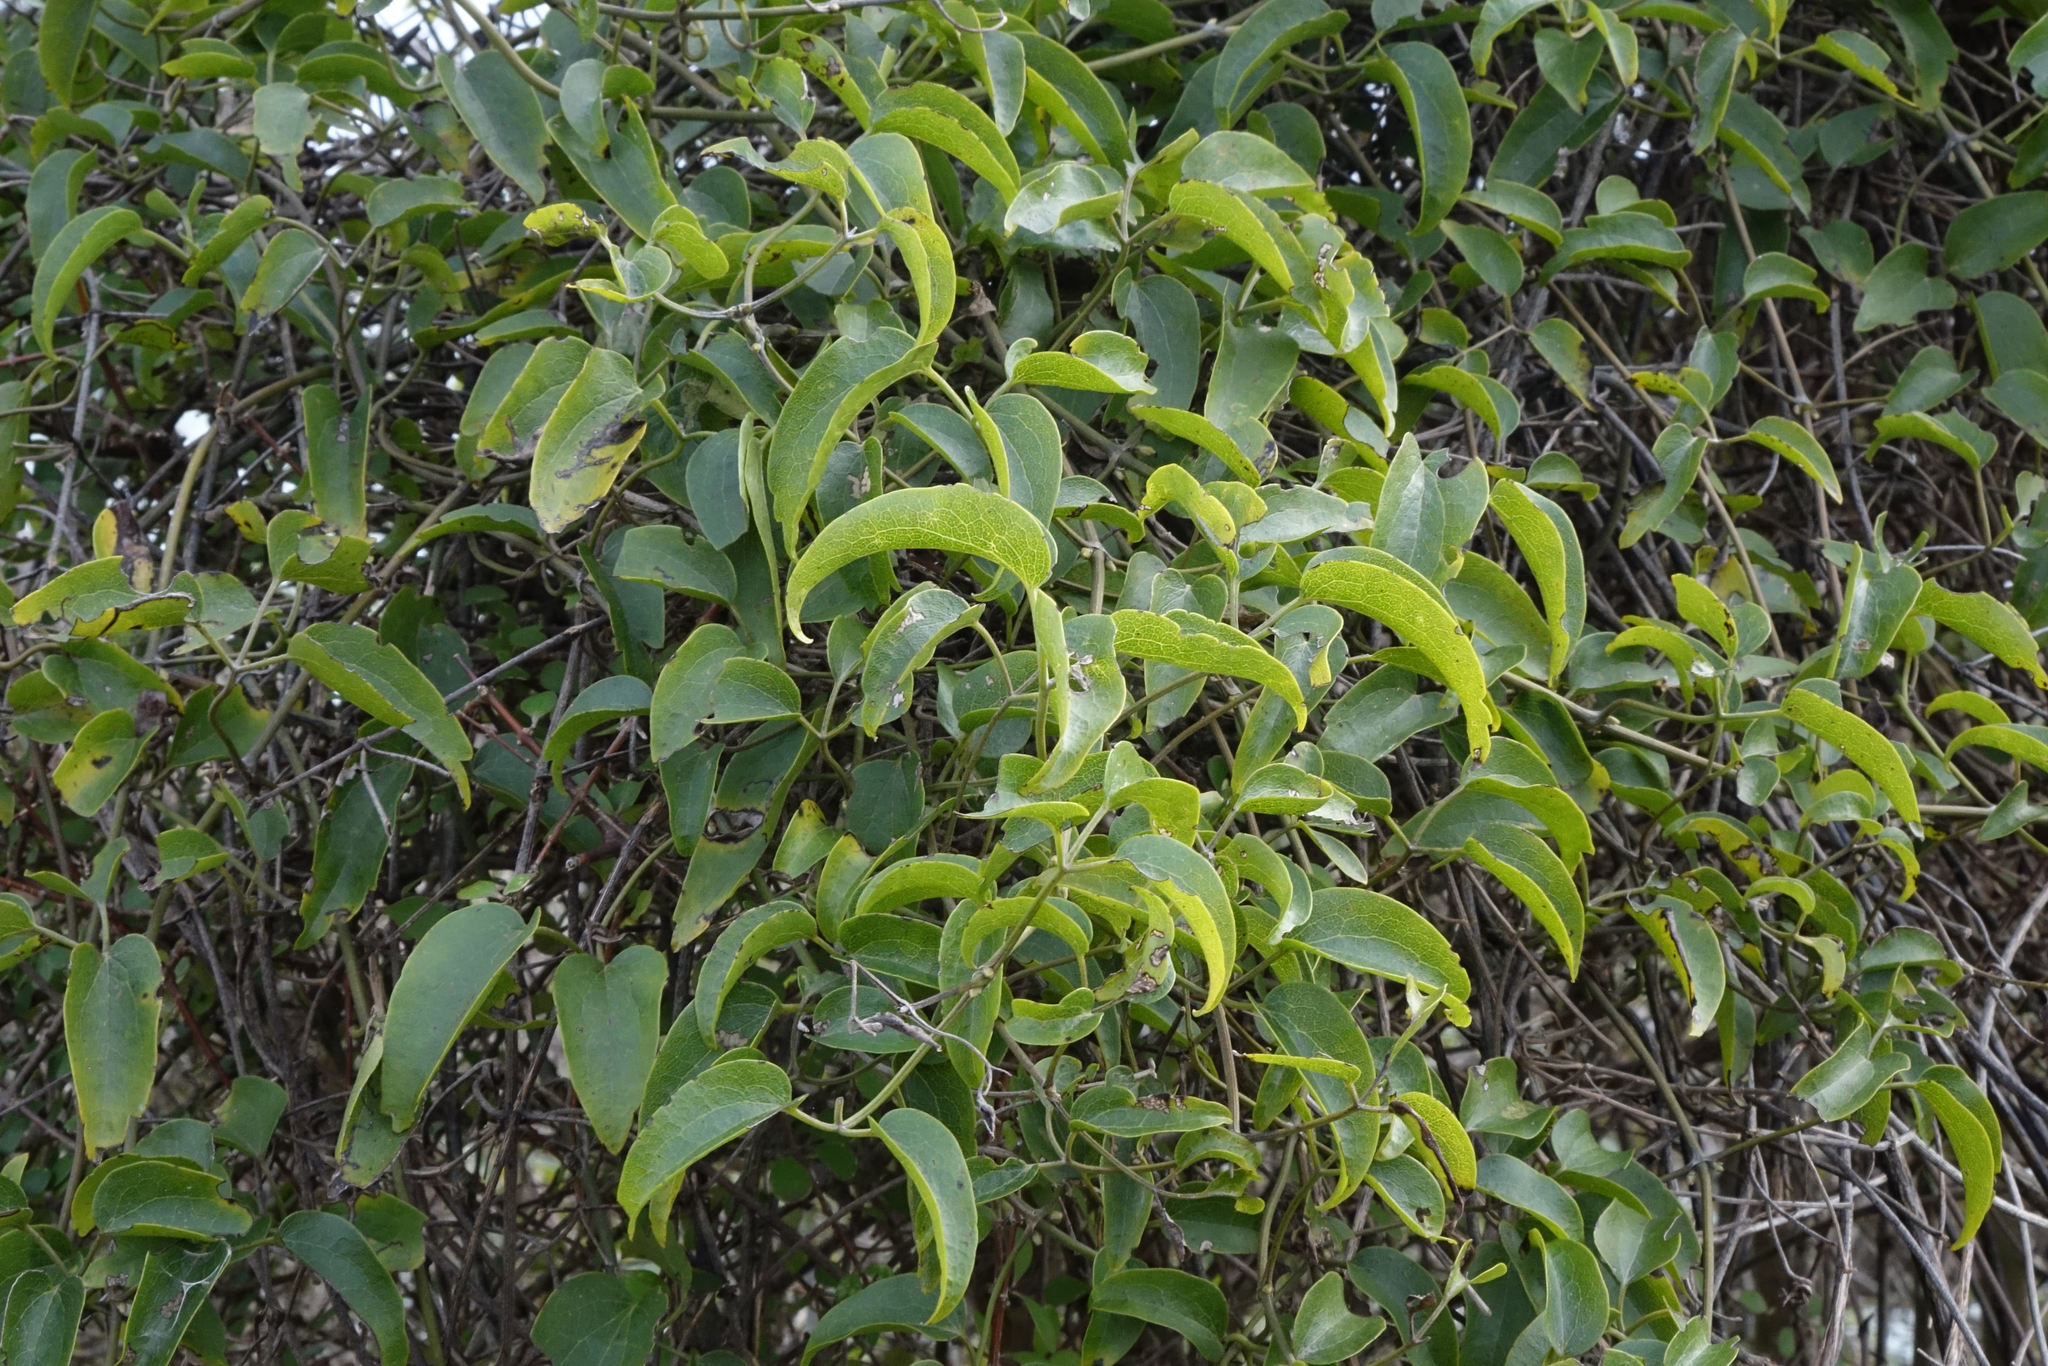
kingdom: Plantae
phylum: Tracheophyta
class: Magnoliopsida
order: Ranunculales
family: Ranunculaceae
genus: Clematis
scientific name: Clematis foetida
